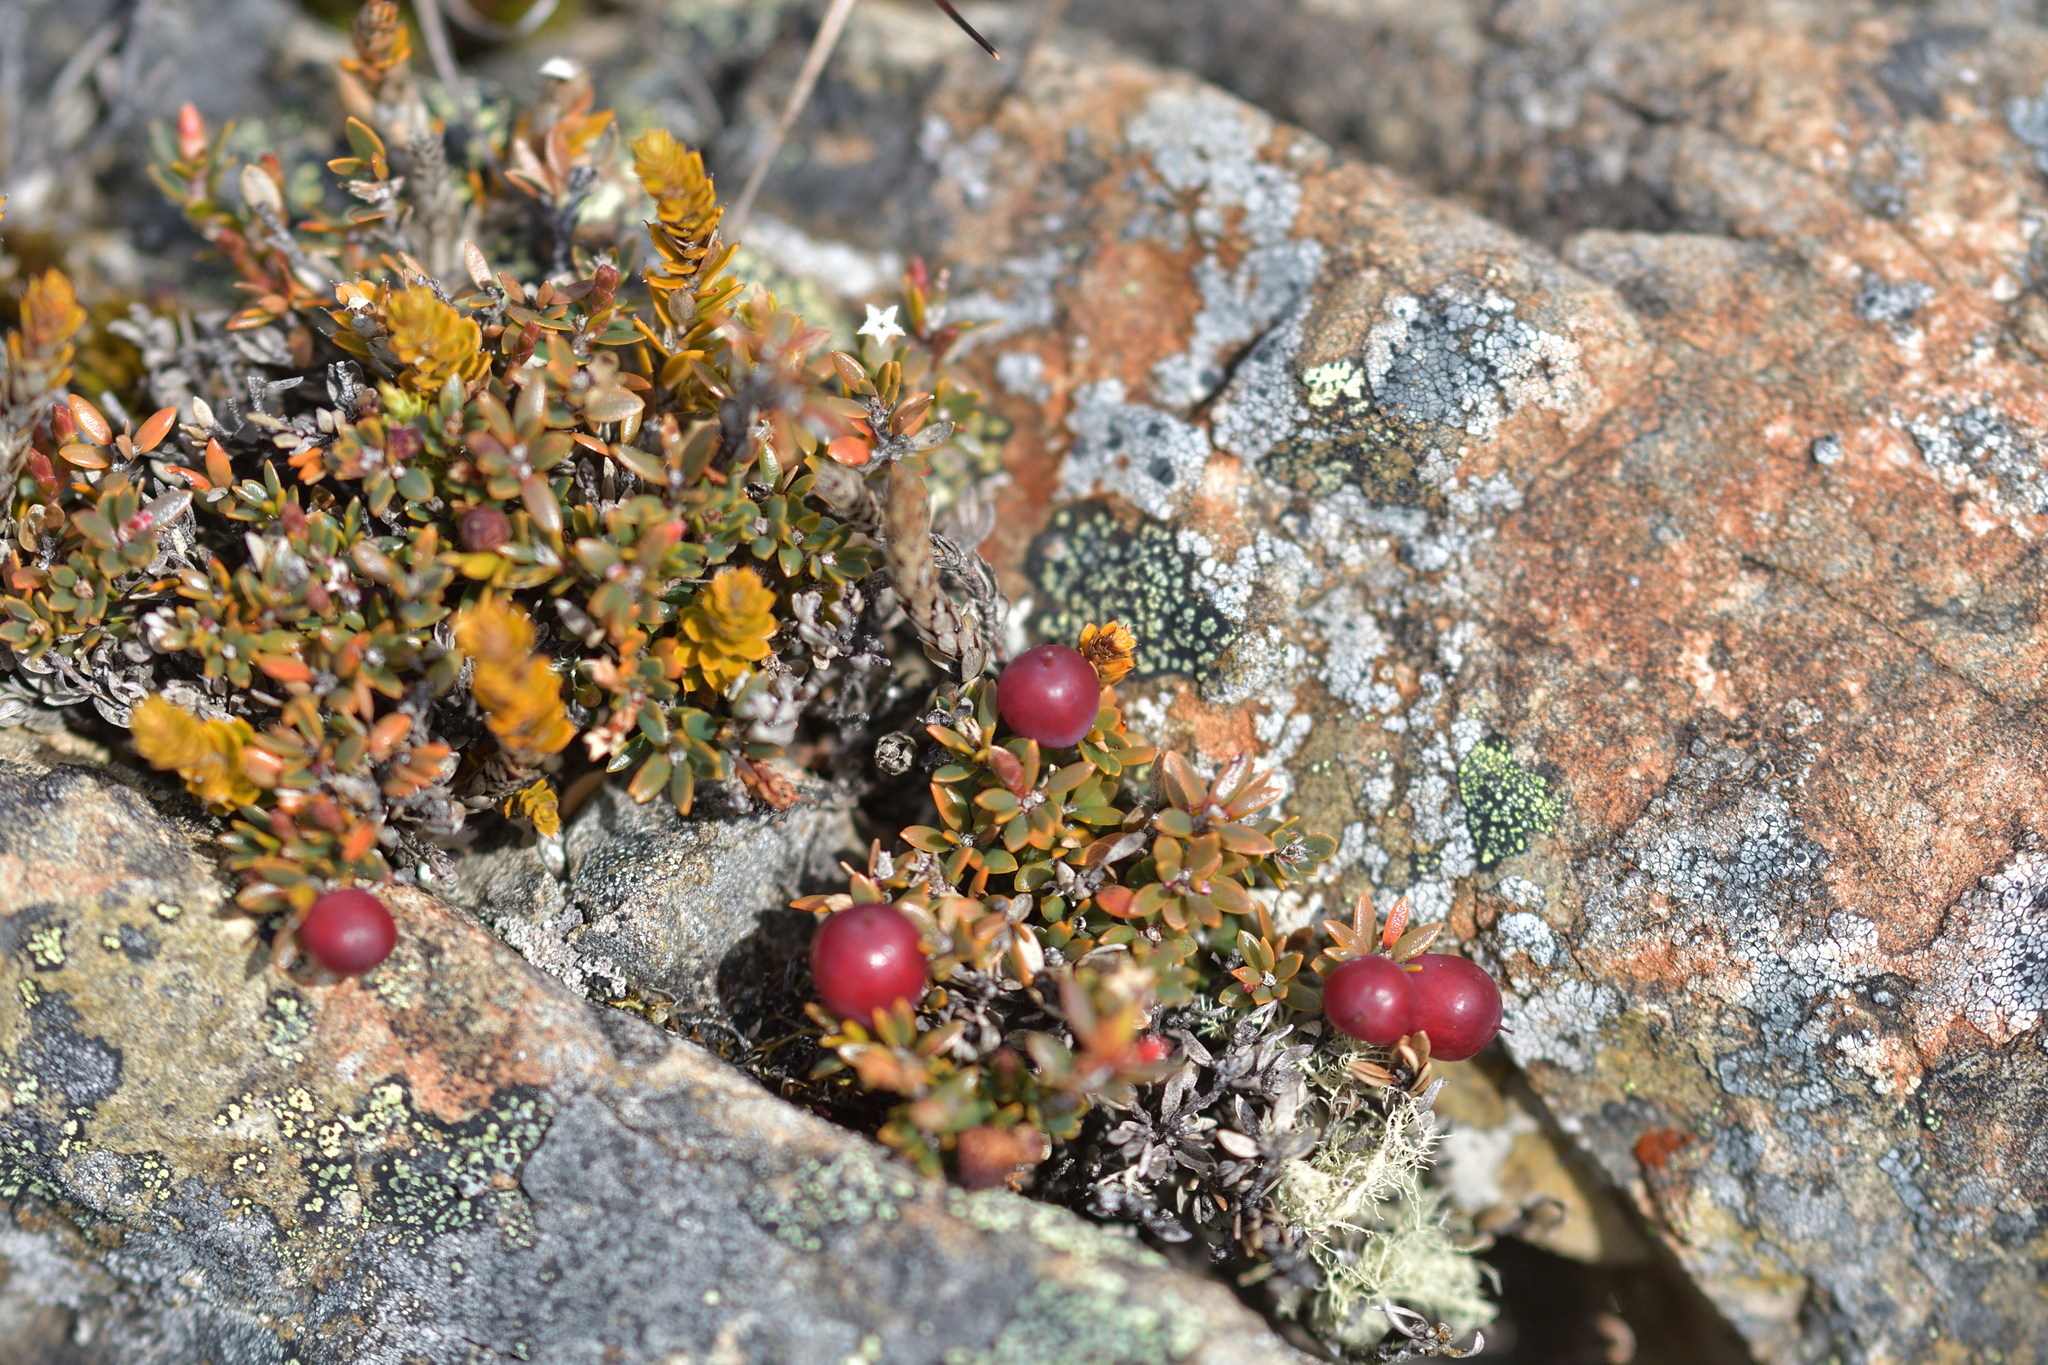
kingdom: Plantae
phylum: Tracheophyta
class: Magnoliopsida
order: Ericales
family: Ericaceae
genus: Pentachondra
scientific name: Pentachondra pumila
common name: Carpet-heath
